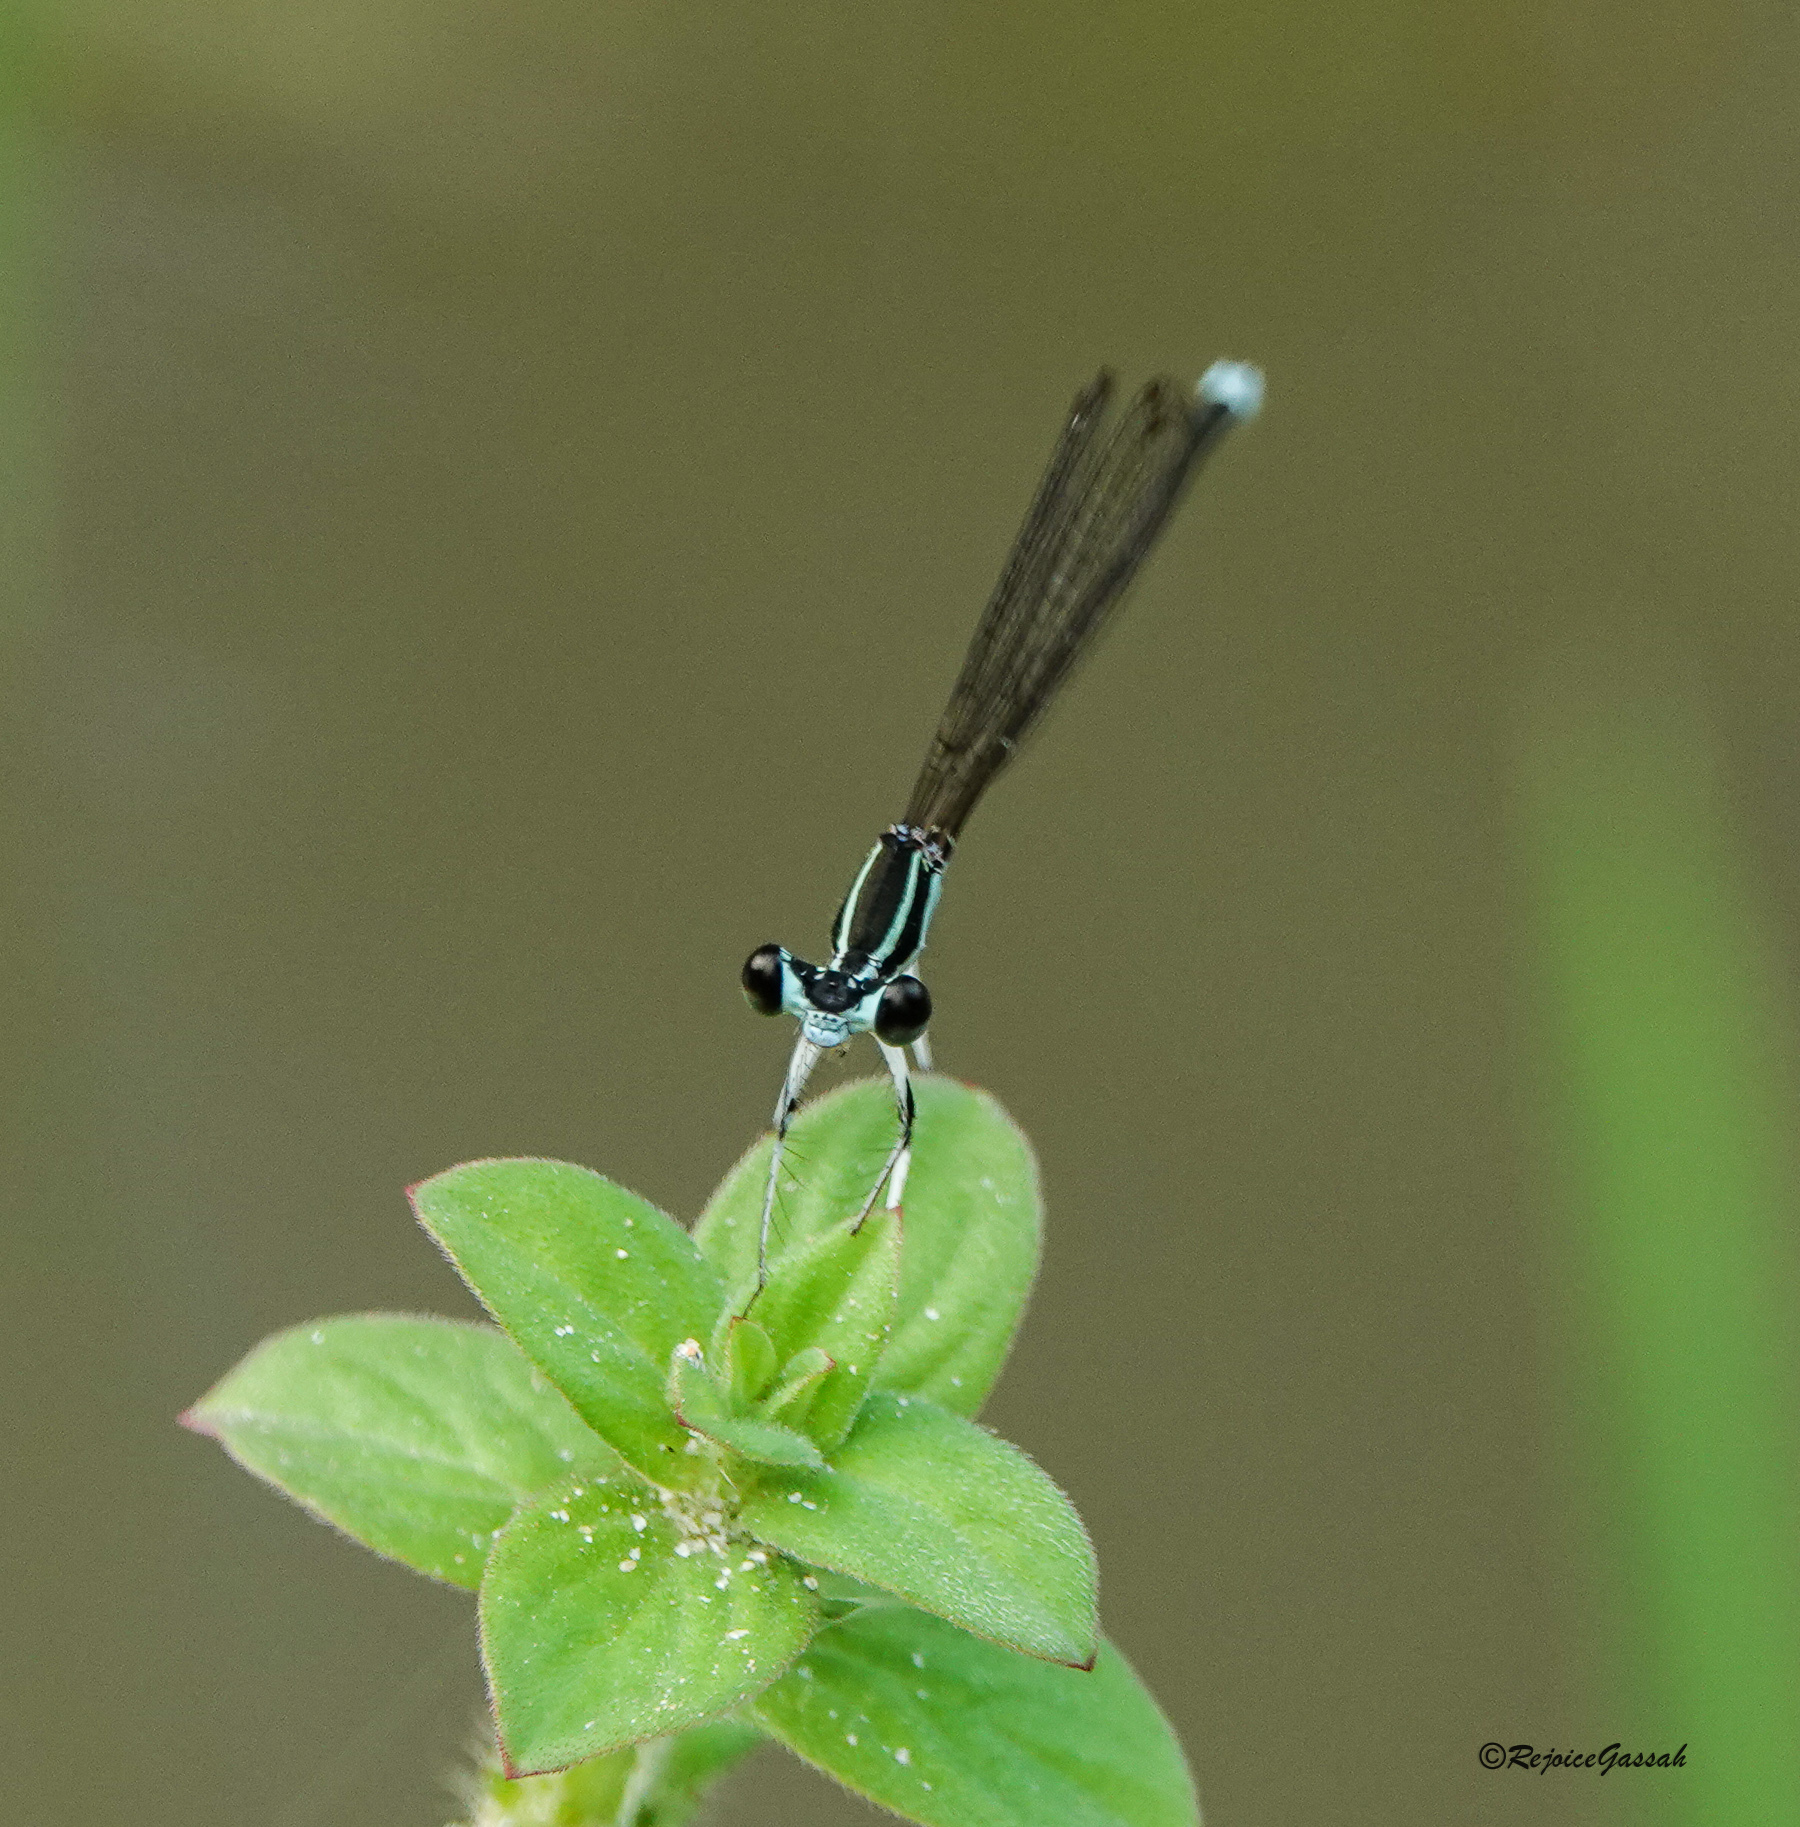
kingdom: Animalia
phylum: Arthropoda
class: Insecta
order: Odonata
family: Platycnemididae
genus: Pseudocopera
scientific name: Pseudocopera ciliata
